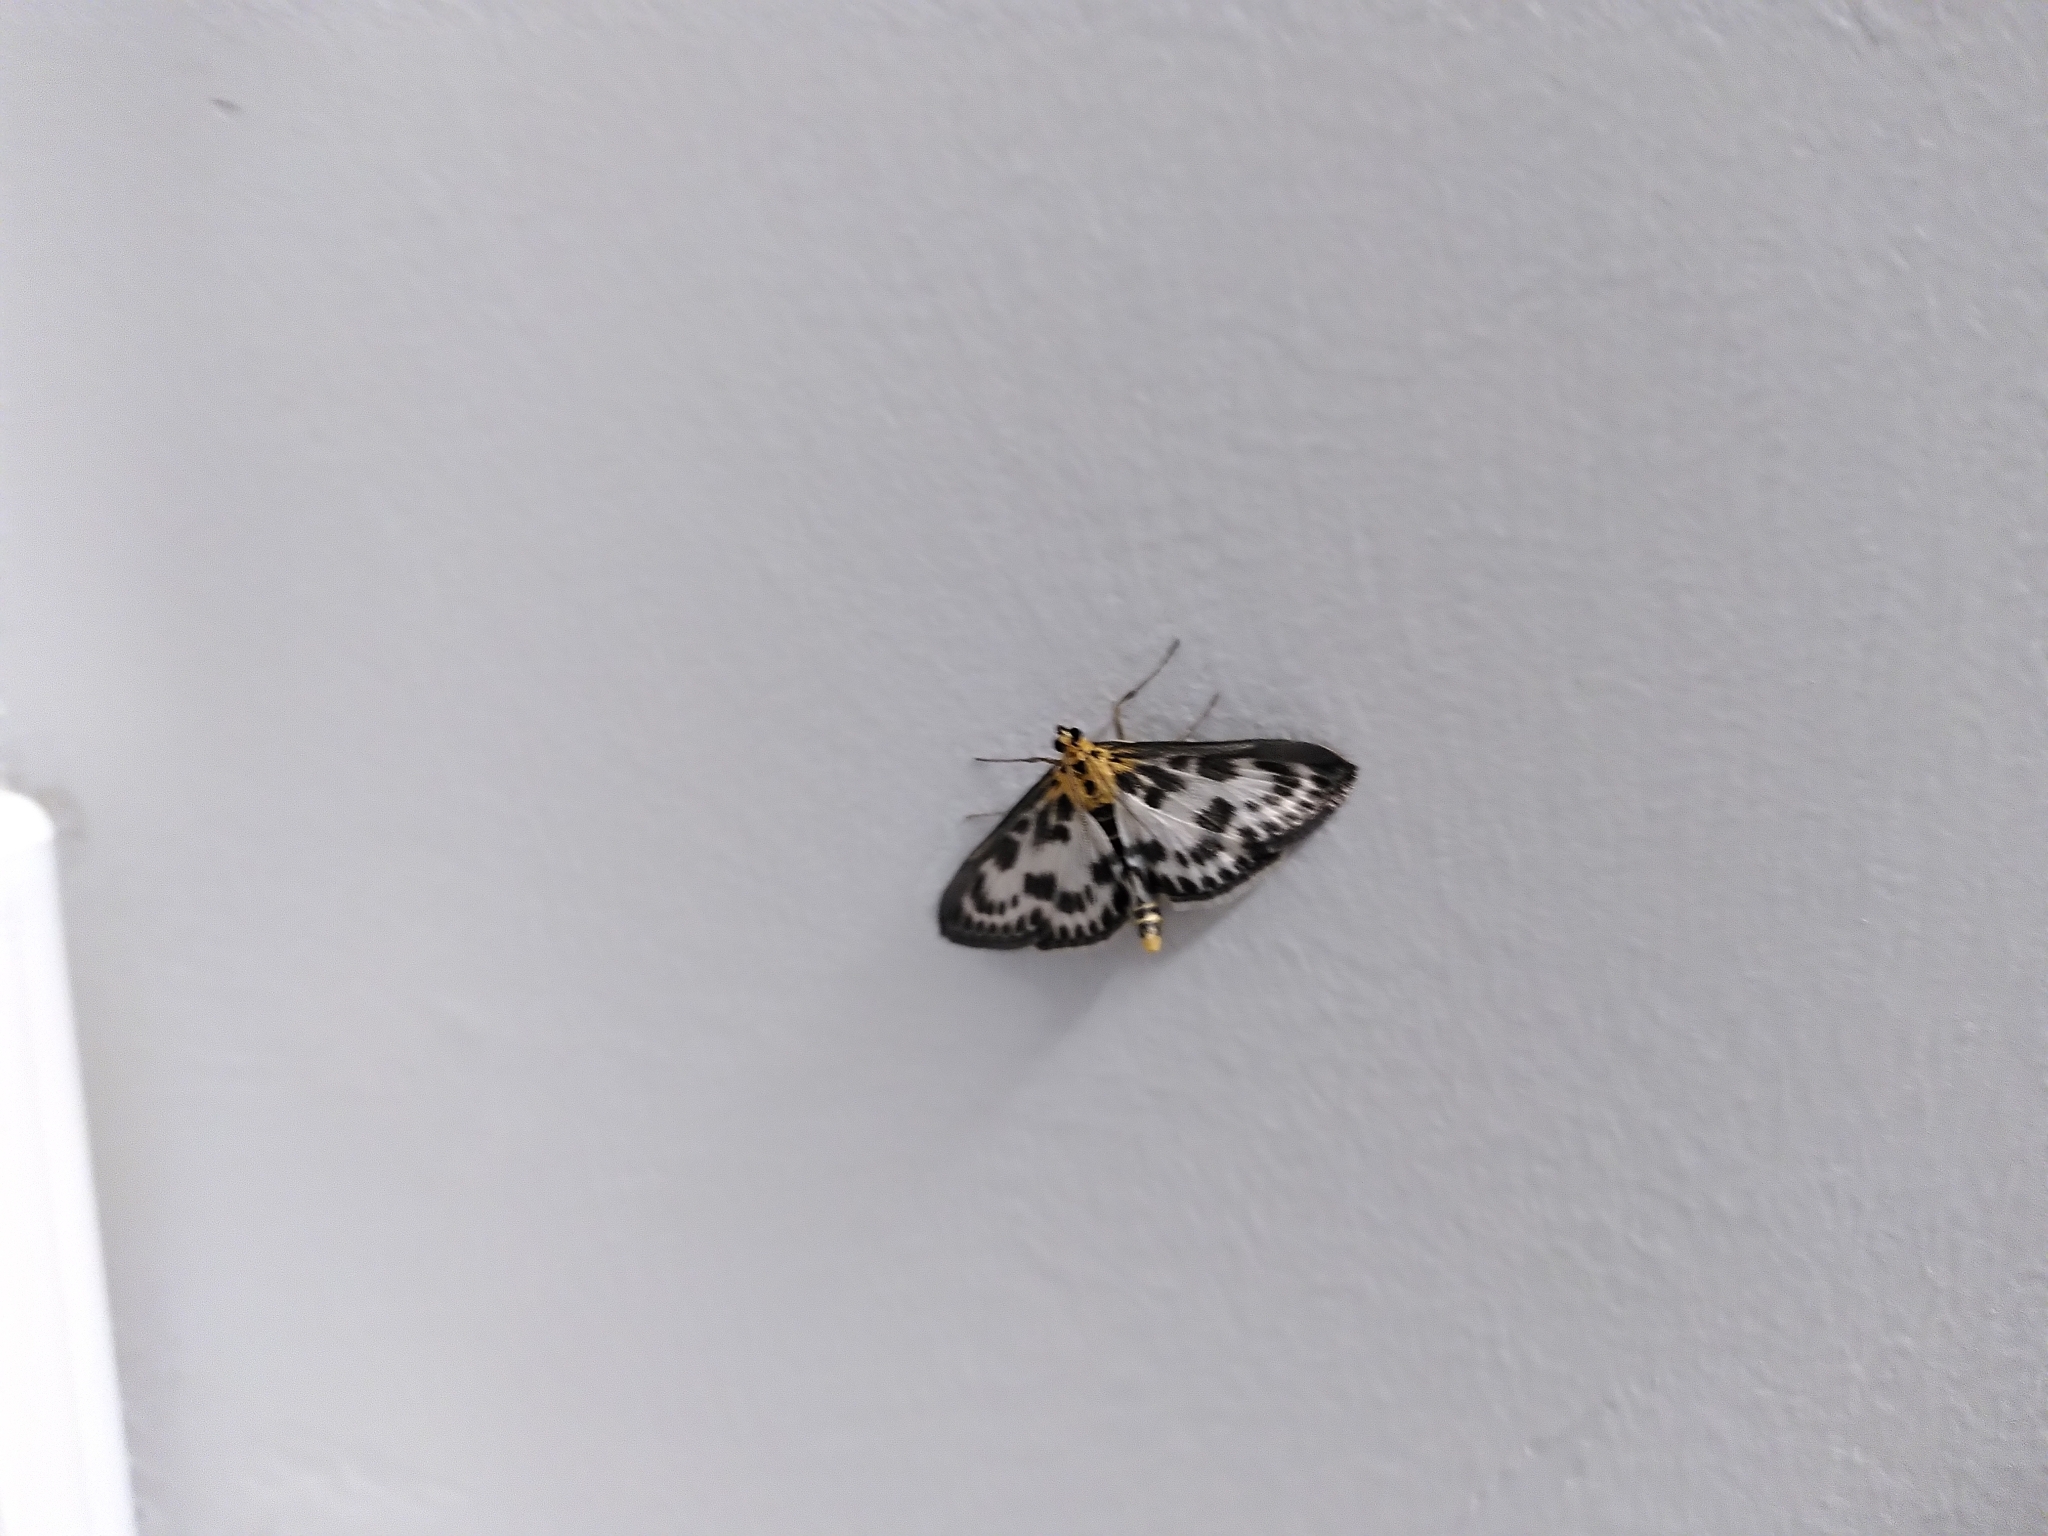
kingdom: Animalia
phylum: Arthropoda
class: Insecta
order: Lepidoptera
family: Crambidae
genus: Anania
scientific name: Anania hortulata
